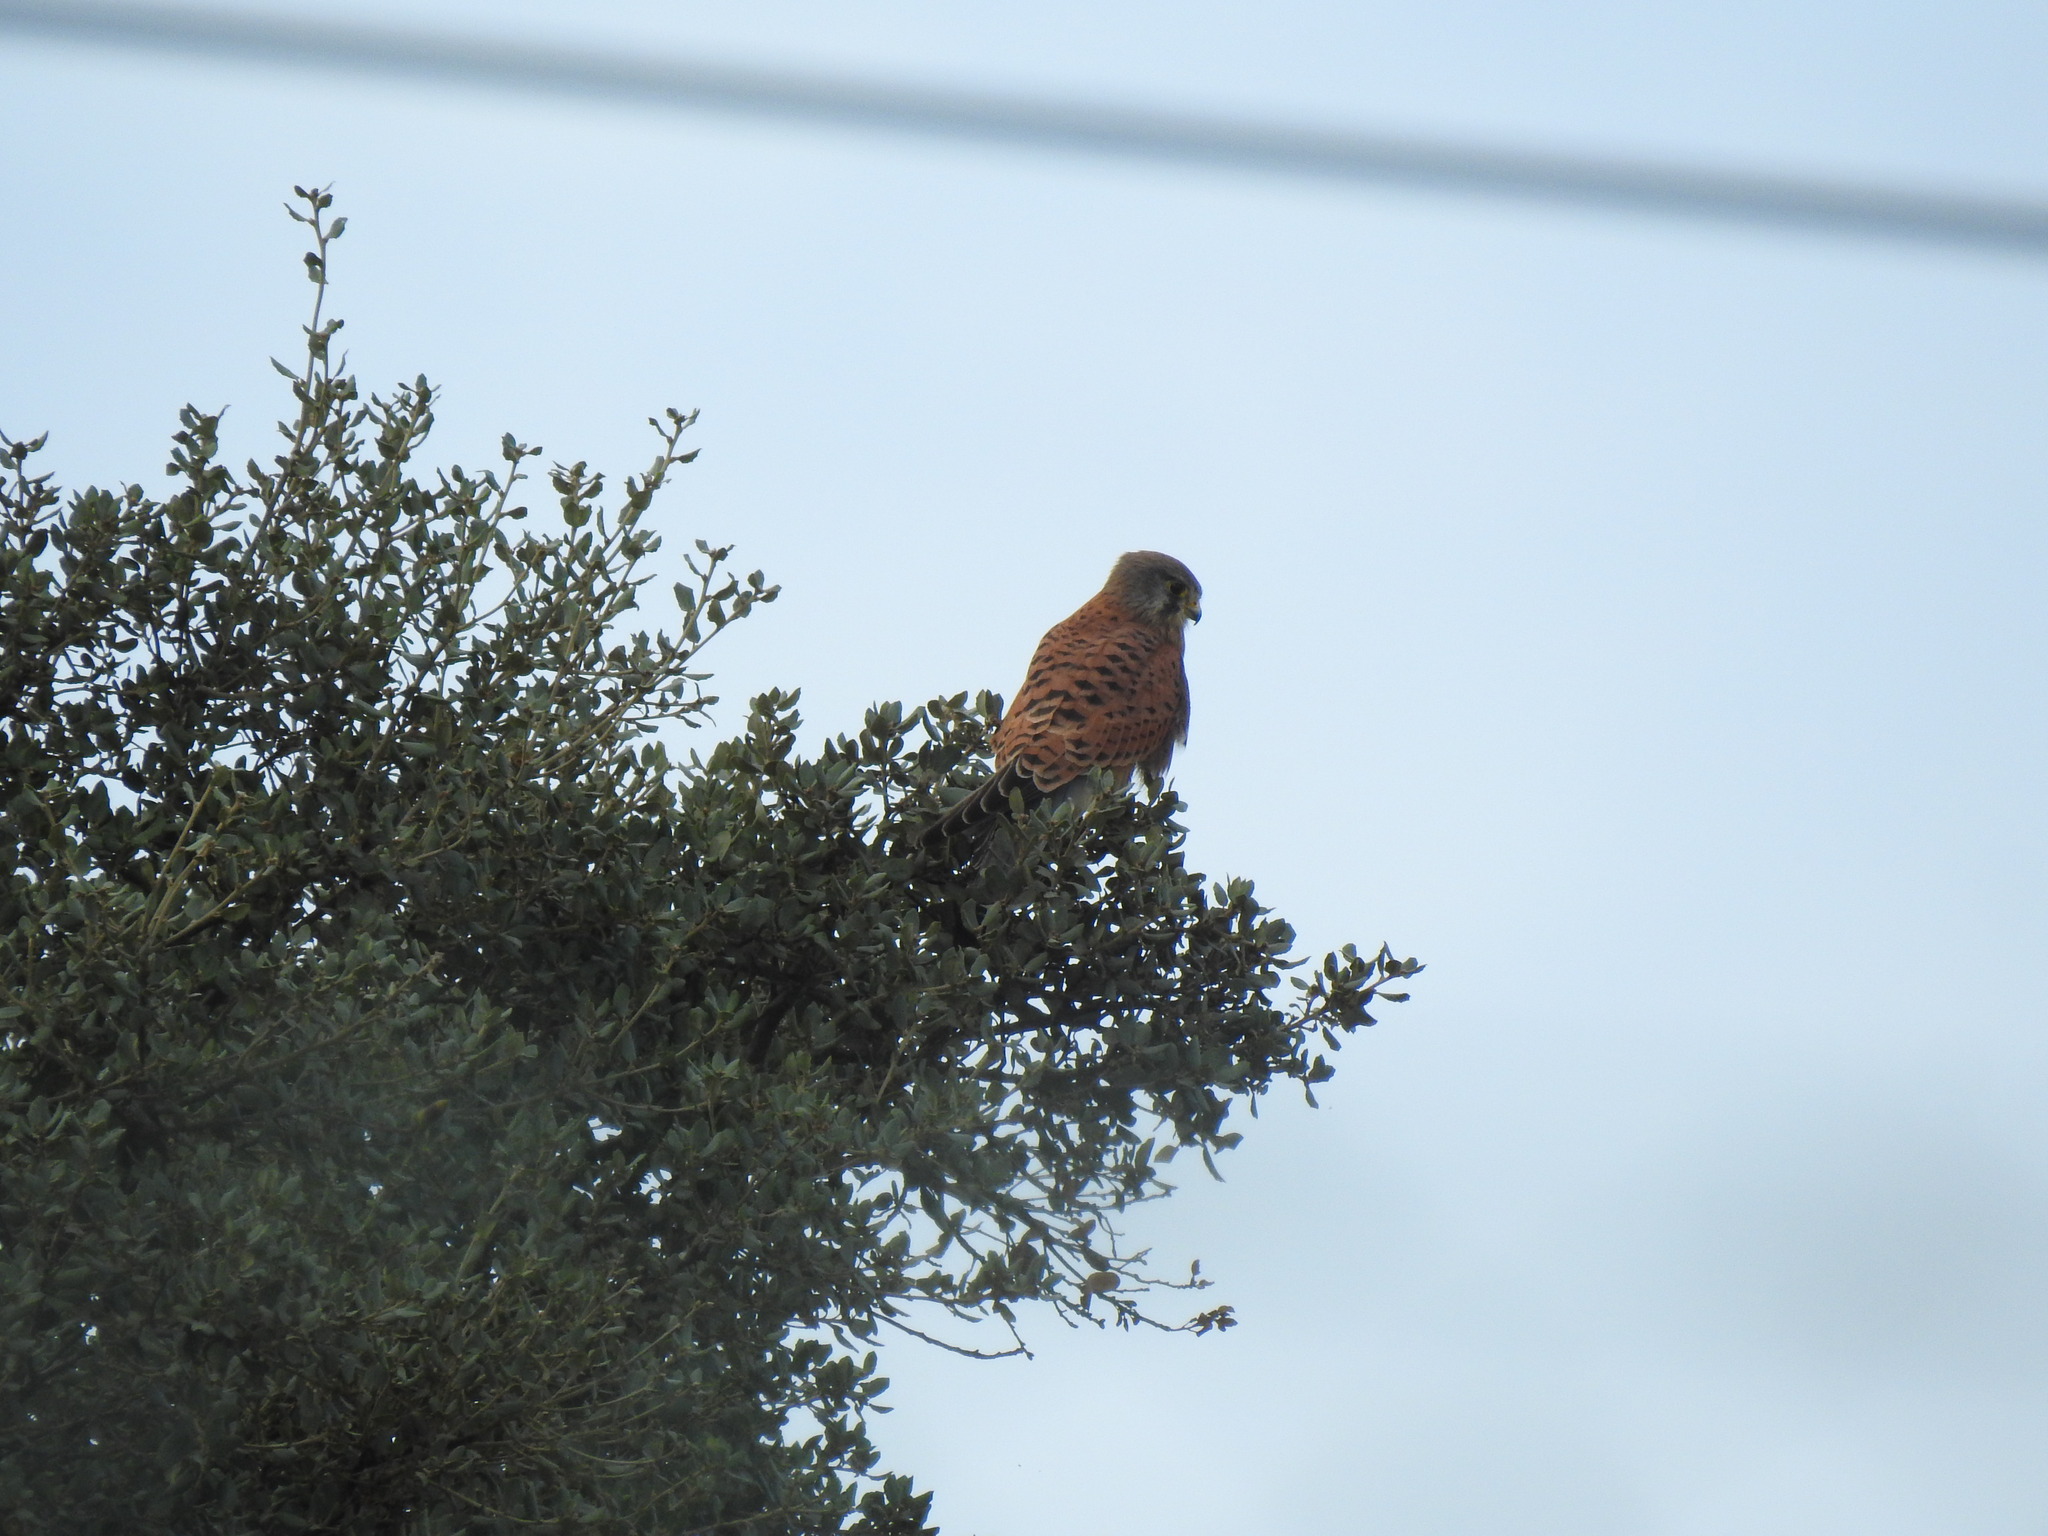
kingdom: Animalia
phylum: Chordata
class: Aves
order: Falconiformes
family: Falconidae
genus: Falco
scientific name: Falco tinnunculus
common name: Common kestrel
